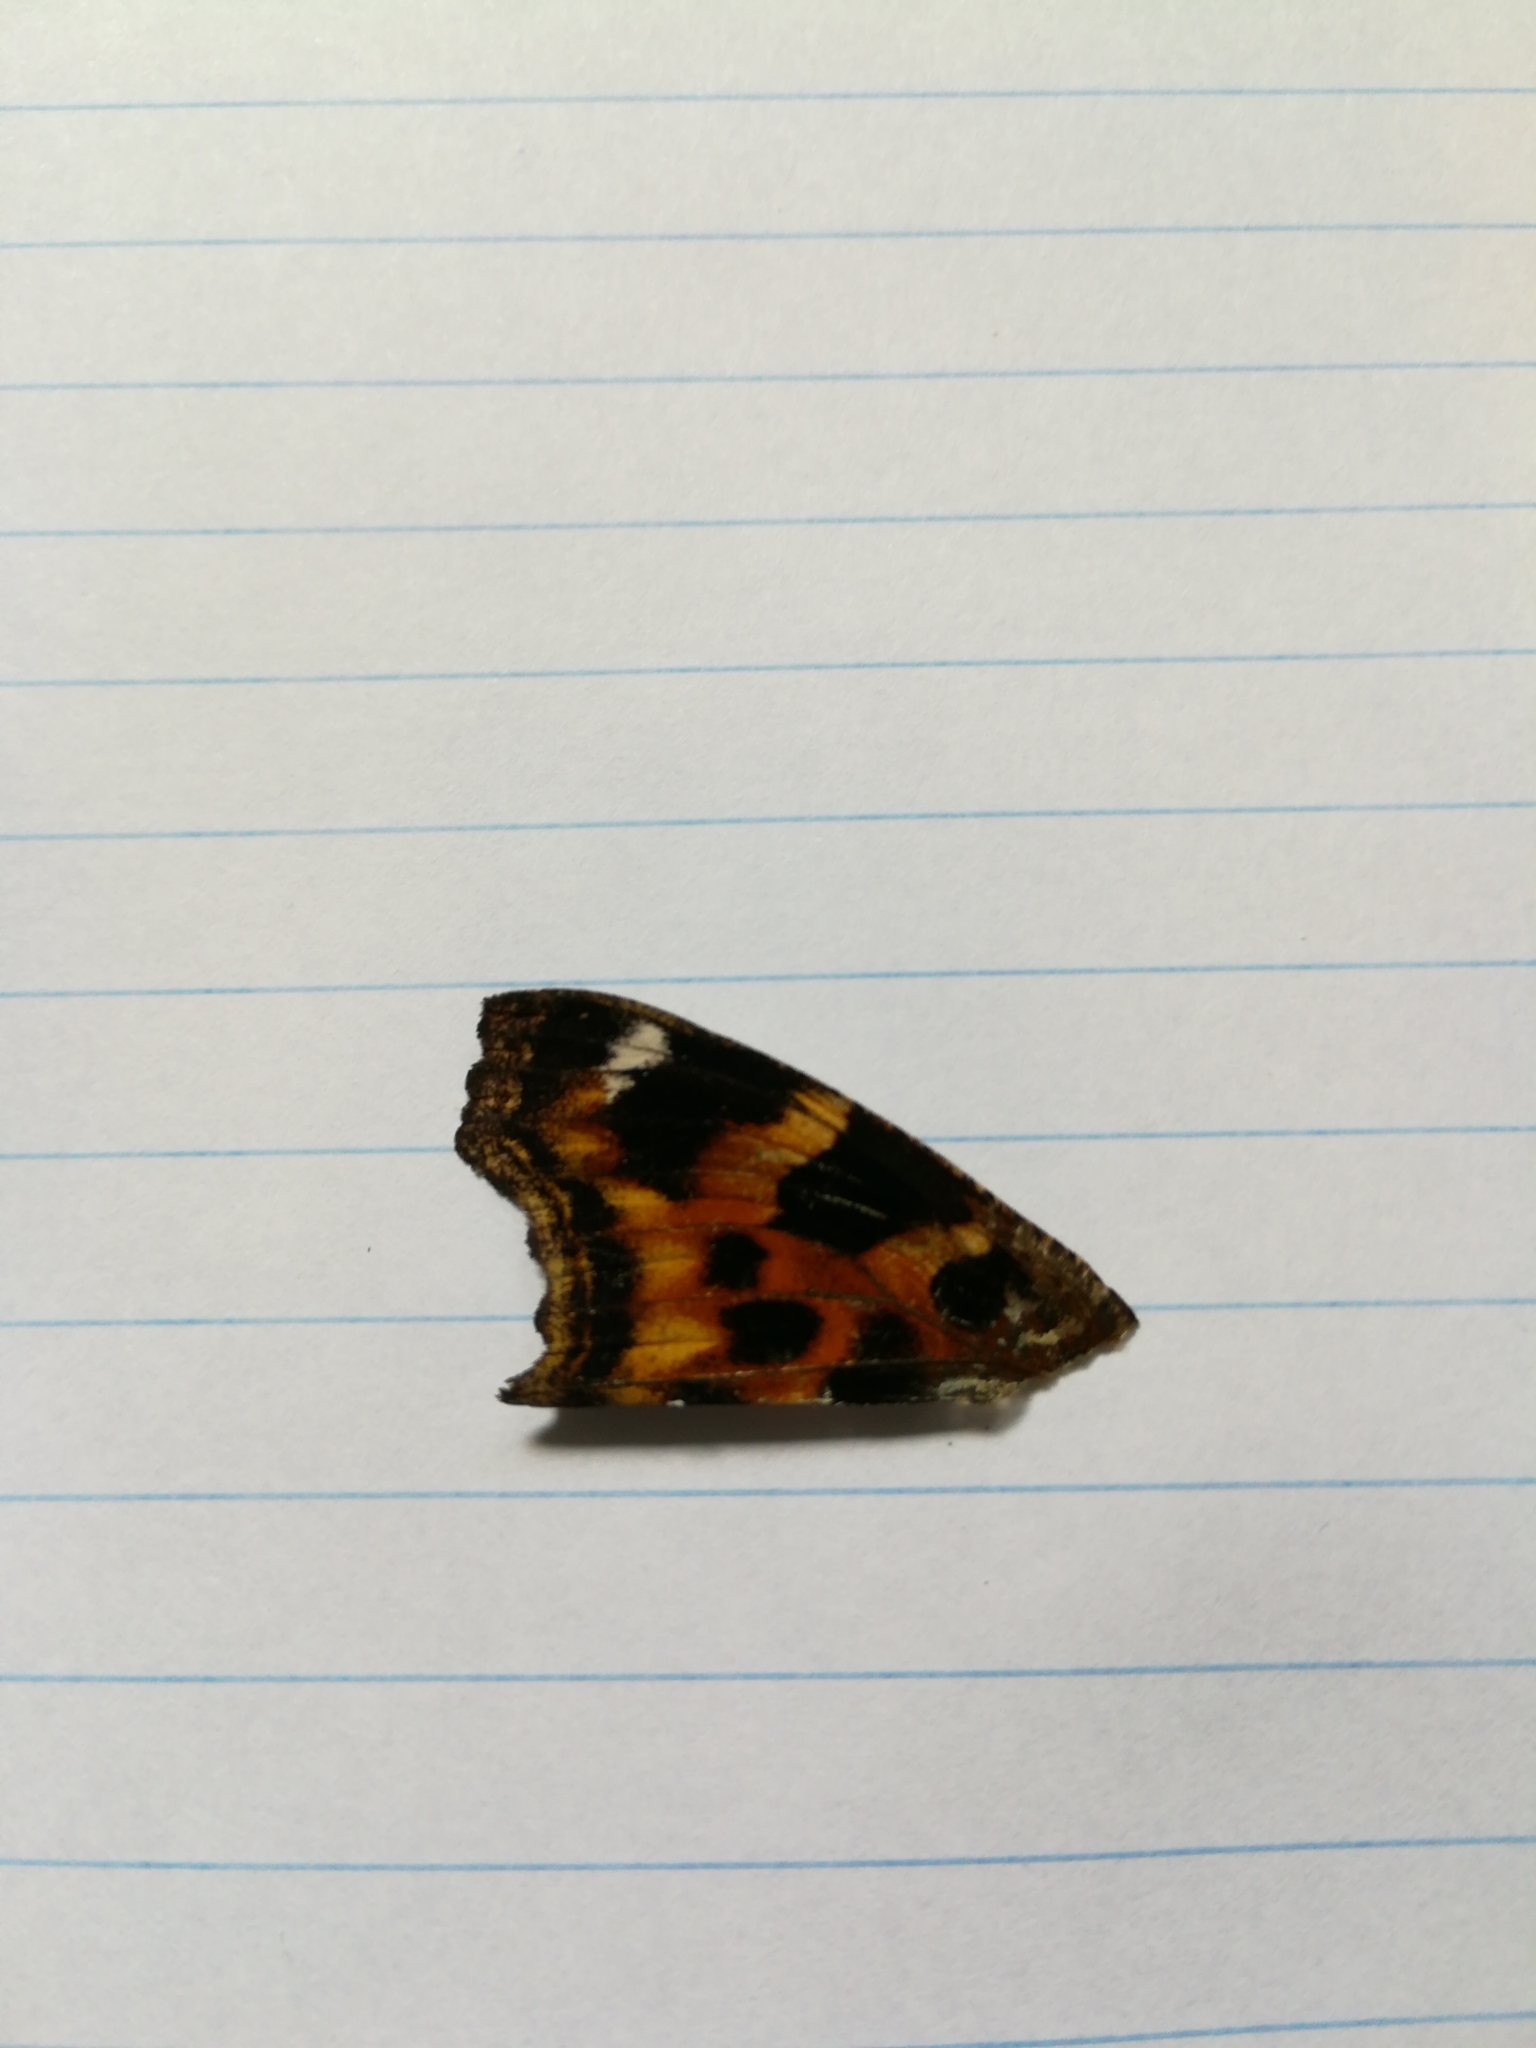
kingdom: Animalia
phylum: Arthropoda
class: Insecta
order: Lepidoptera
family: Nymphalidae
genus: Polygonia
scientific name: Polygonia vaualbum
